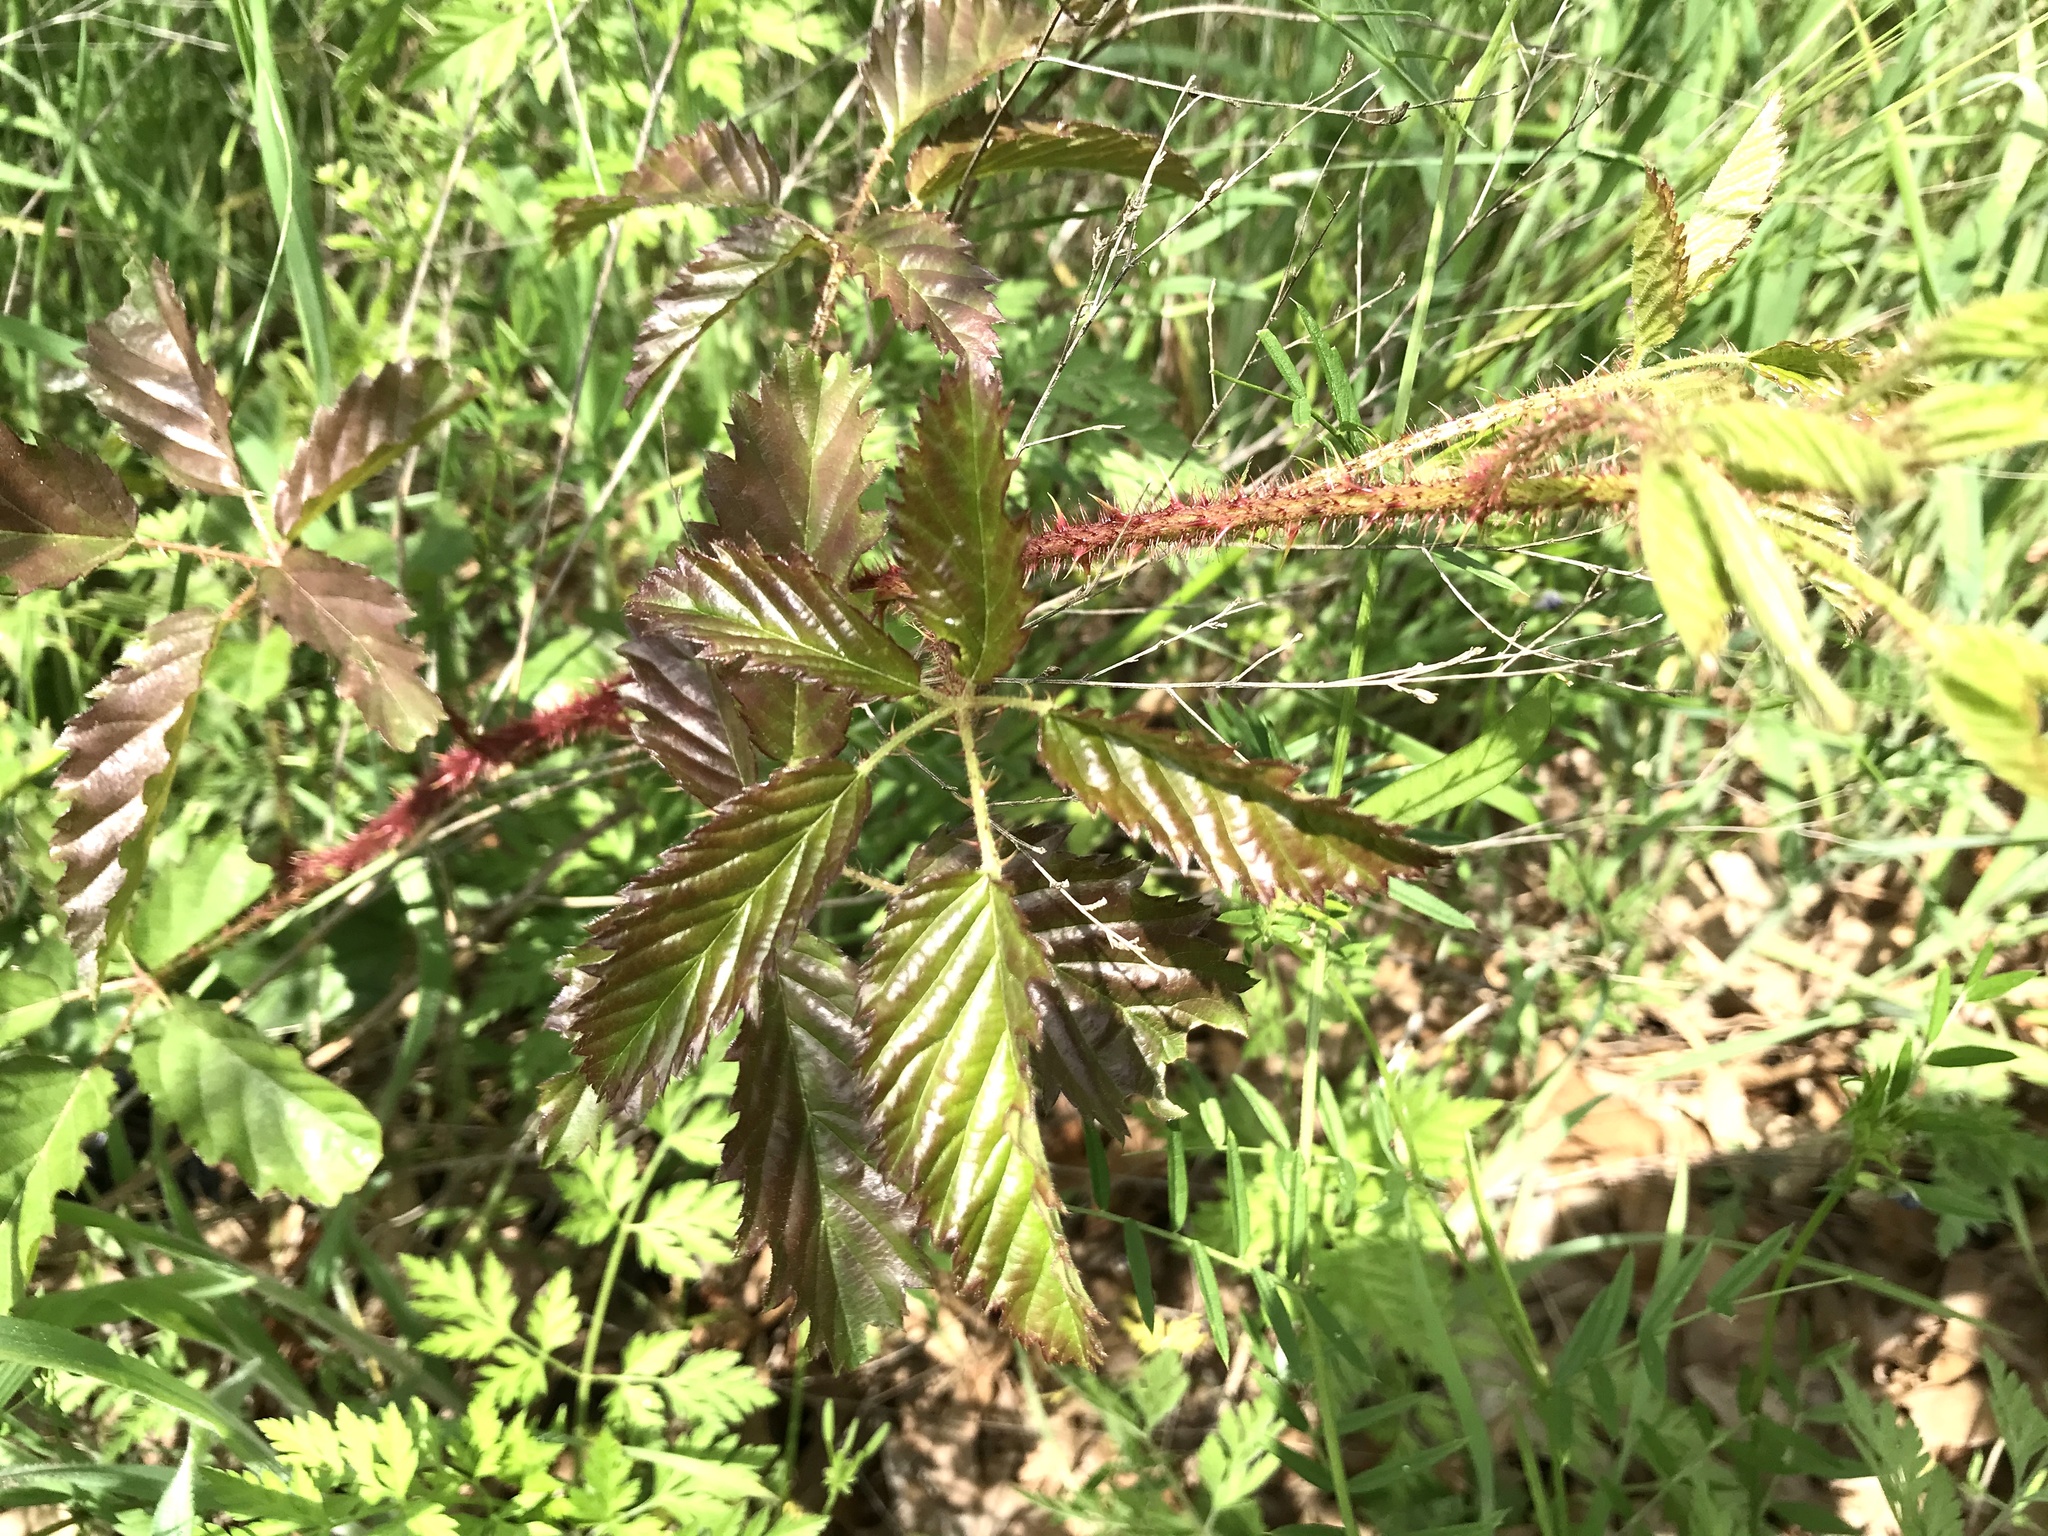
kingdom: Plantae
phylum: Tracheophyta
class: Magnoliopsida
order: Rosales
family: Rosaceae
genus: Rubus
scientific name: Rubus trivialis
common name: Southern dewberry
